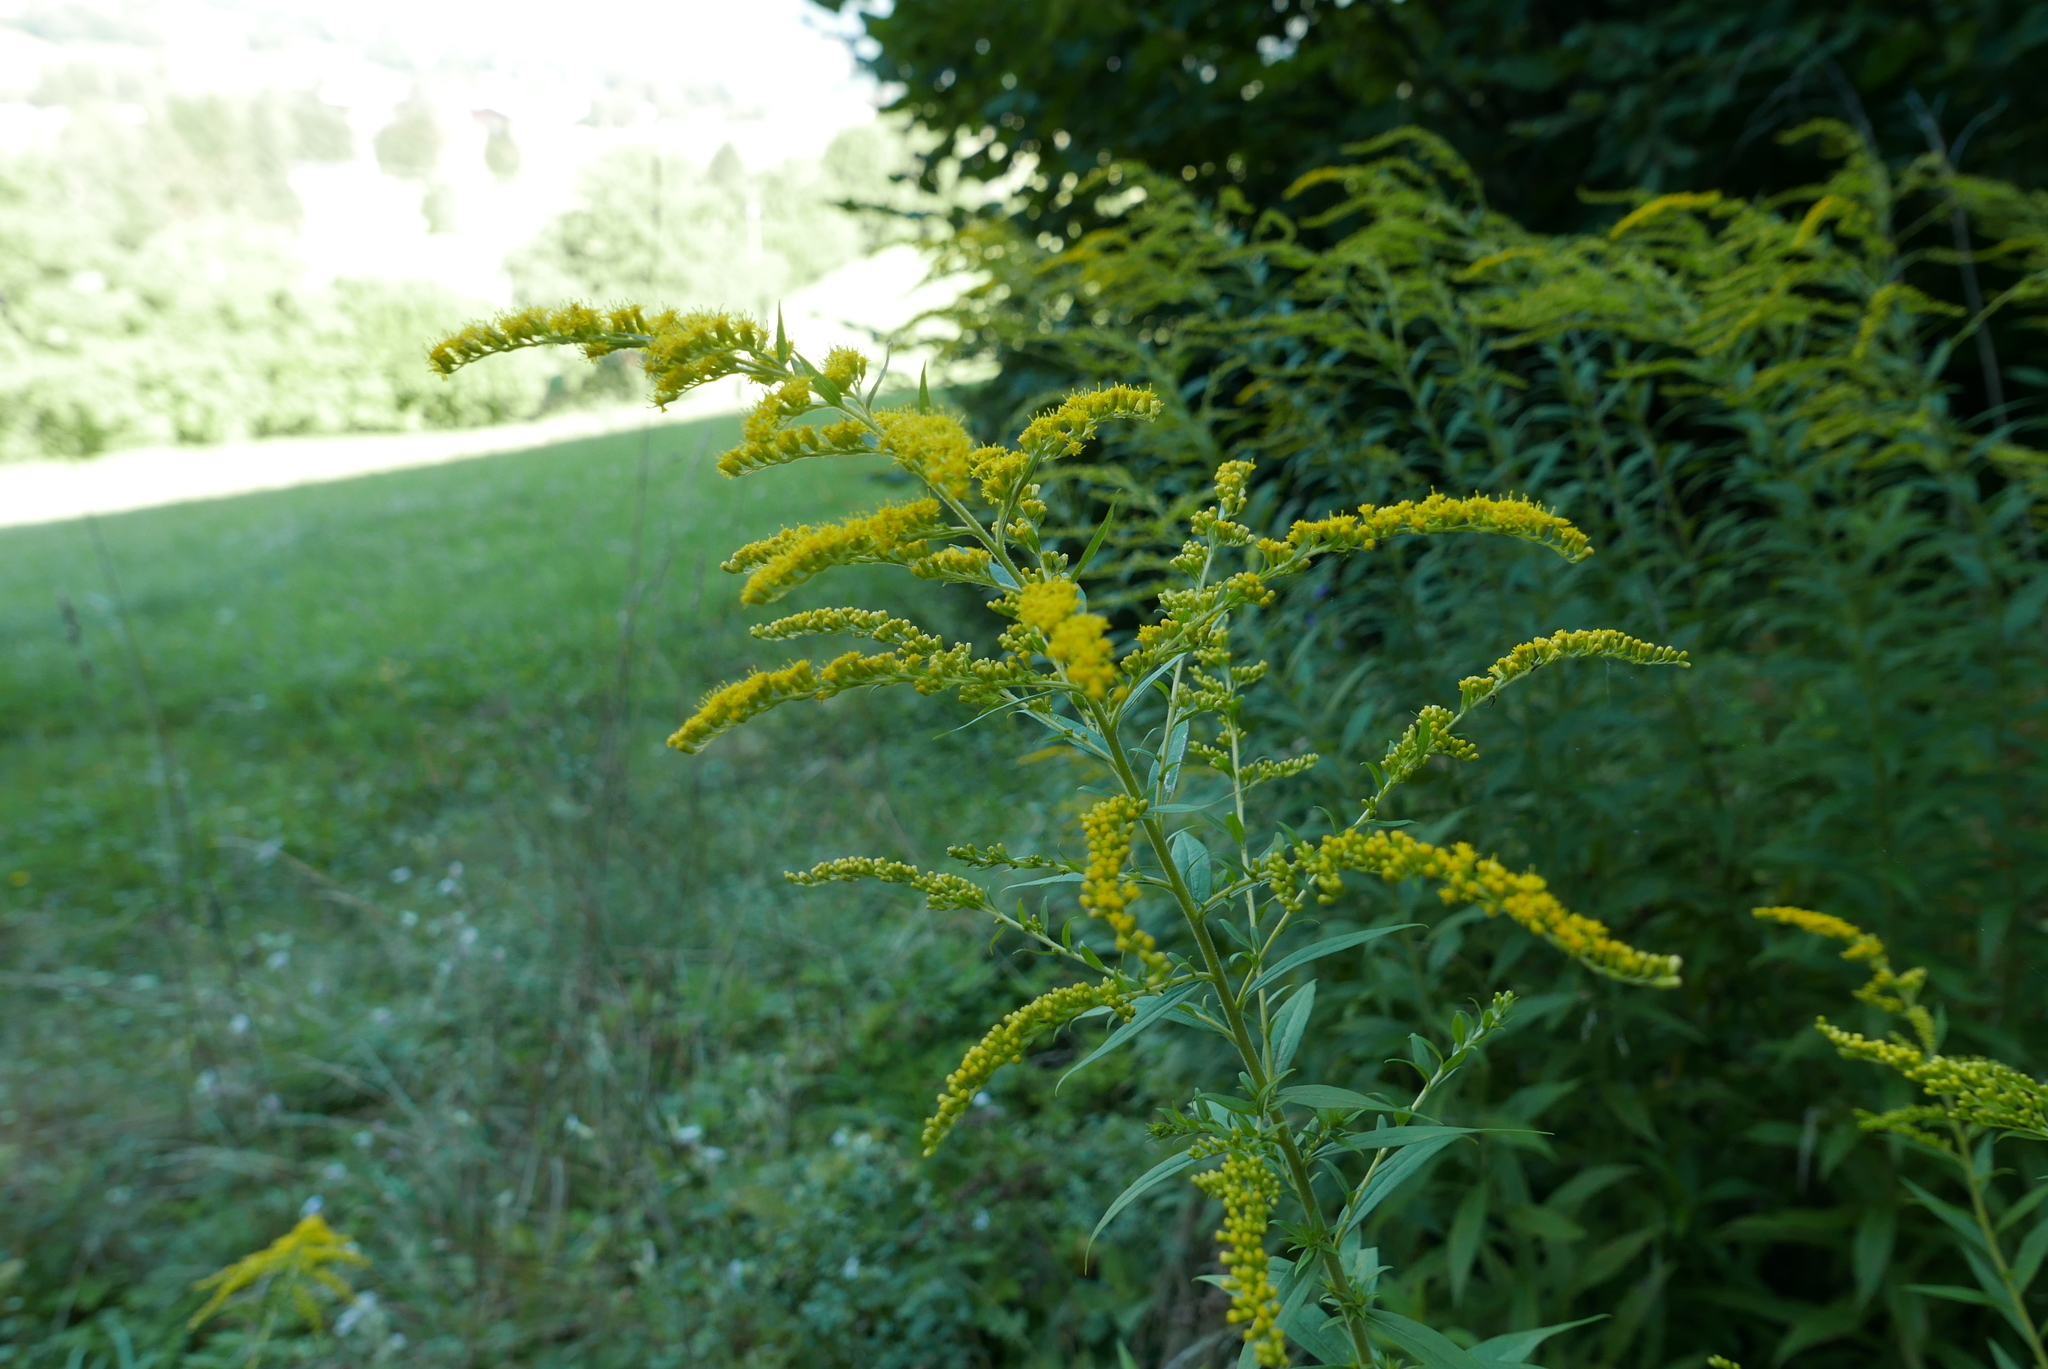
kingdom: Plantae
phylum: Tracheophyta
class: Magnoliopsida
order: Asterales
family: Asteraceae
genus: Solidago
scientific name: Solidago canadensis
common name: Canada goldenrod
